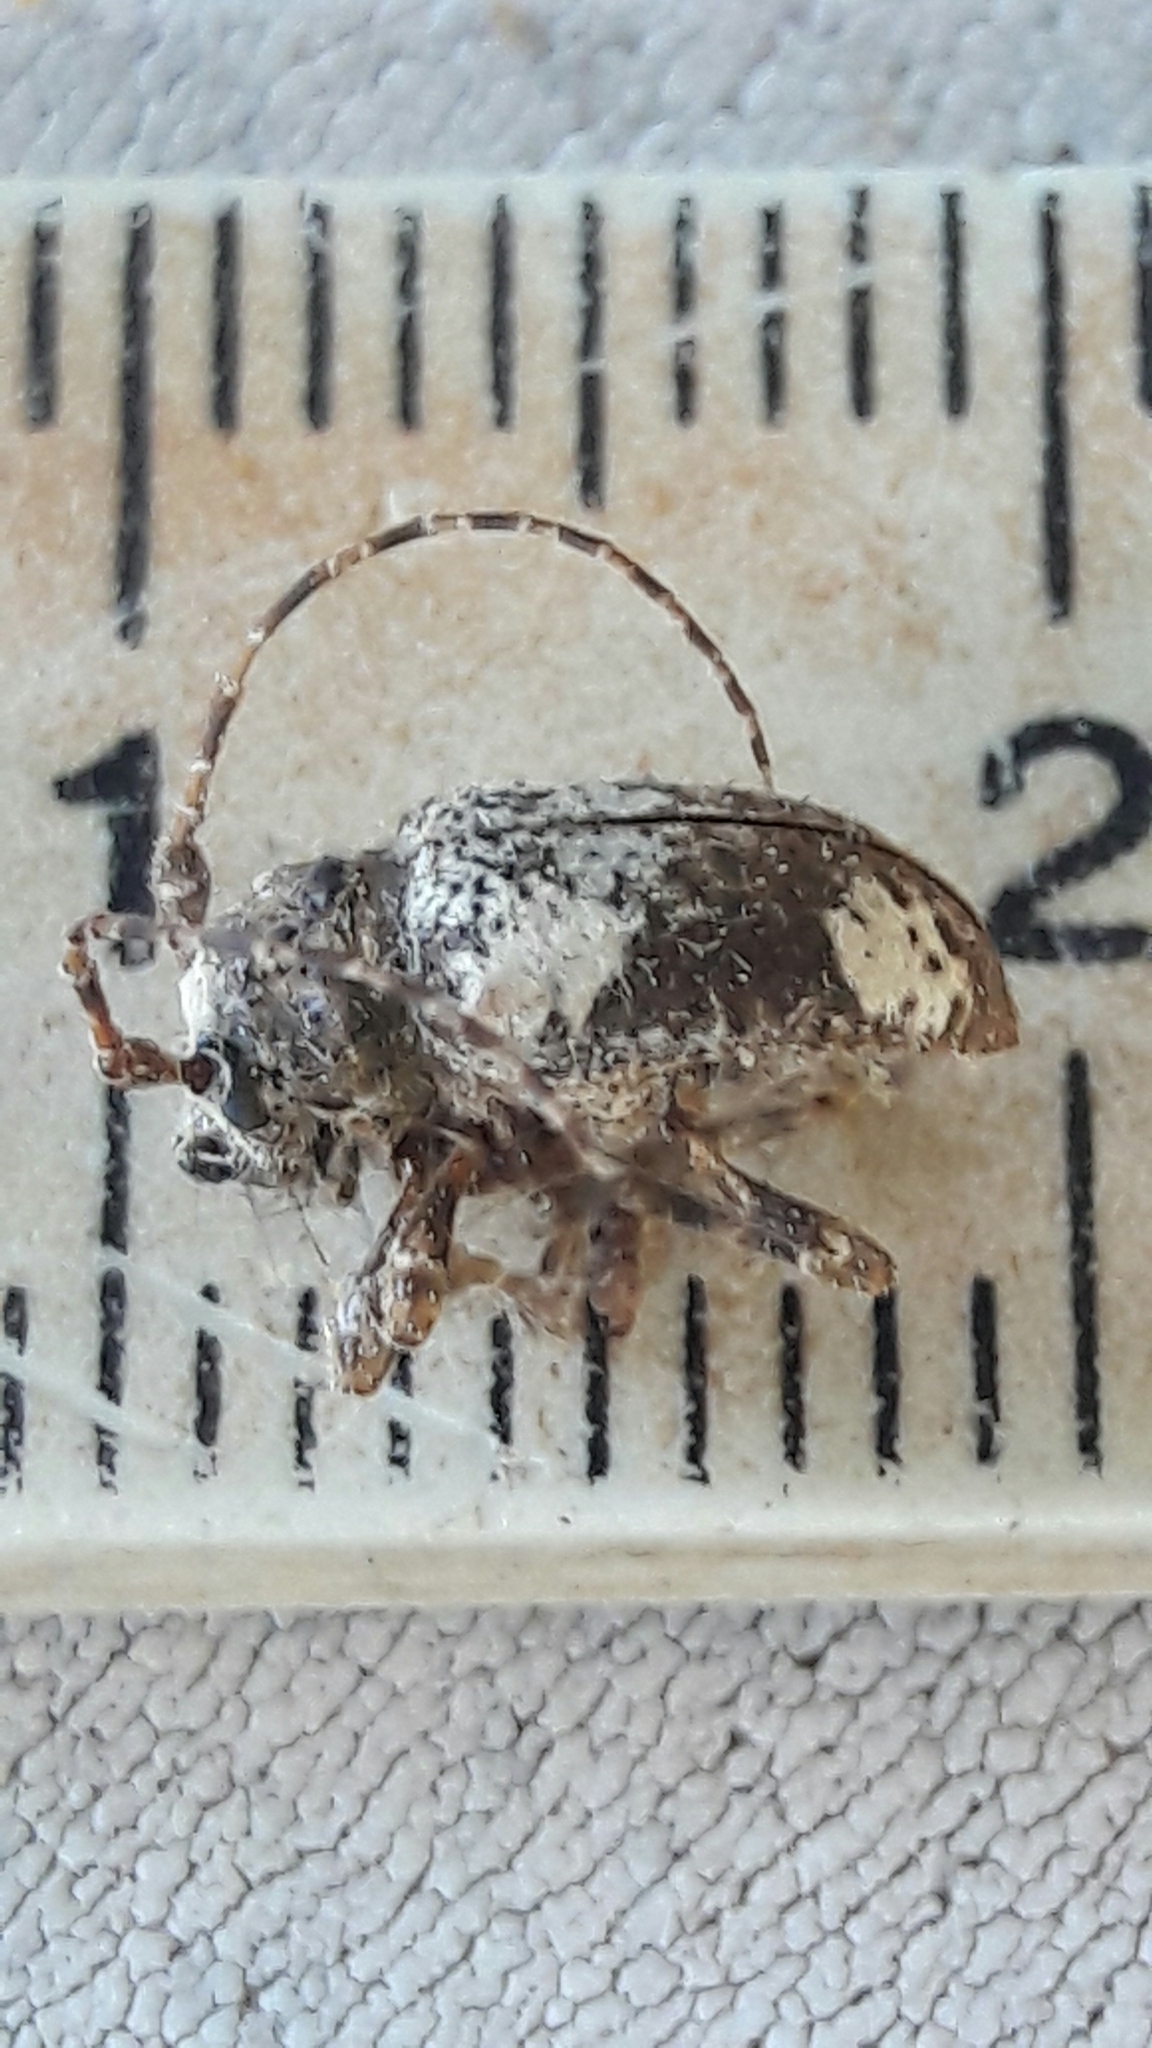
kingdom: Animalia
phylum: Arthropoda
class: Insecta
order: Coleoptera
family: Cerambycidae
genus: Aerenea
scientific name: Aerenea quadriplagiata
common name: Amaranth stem borer
